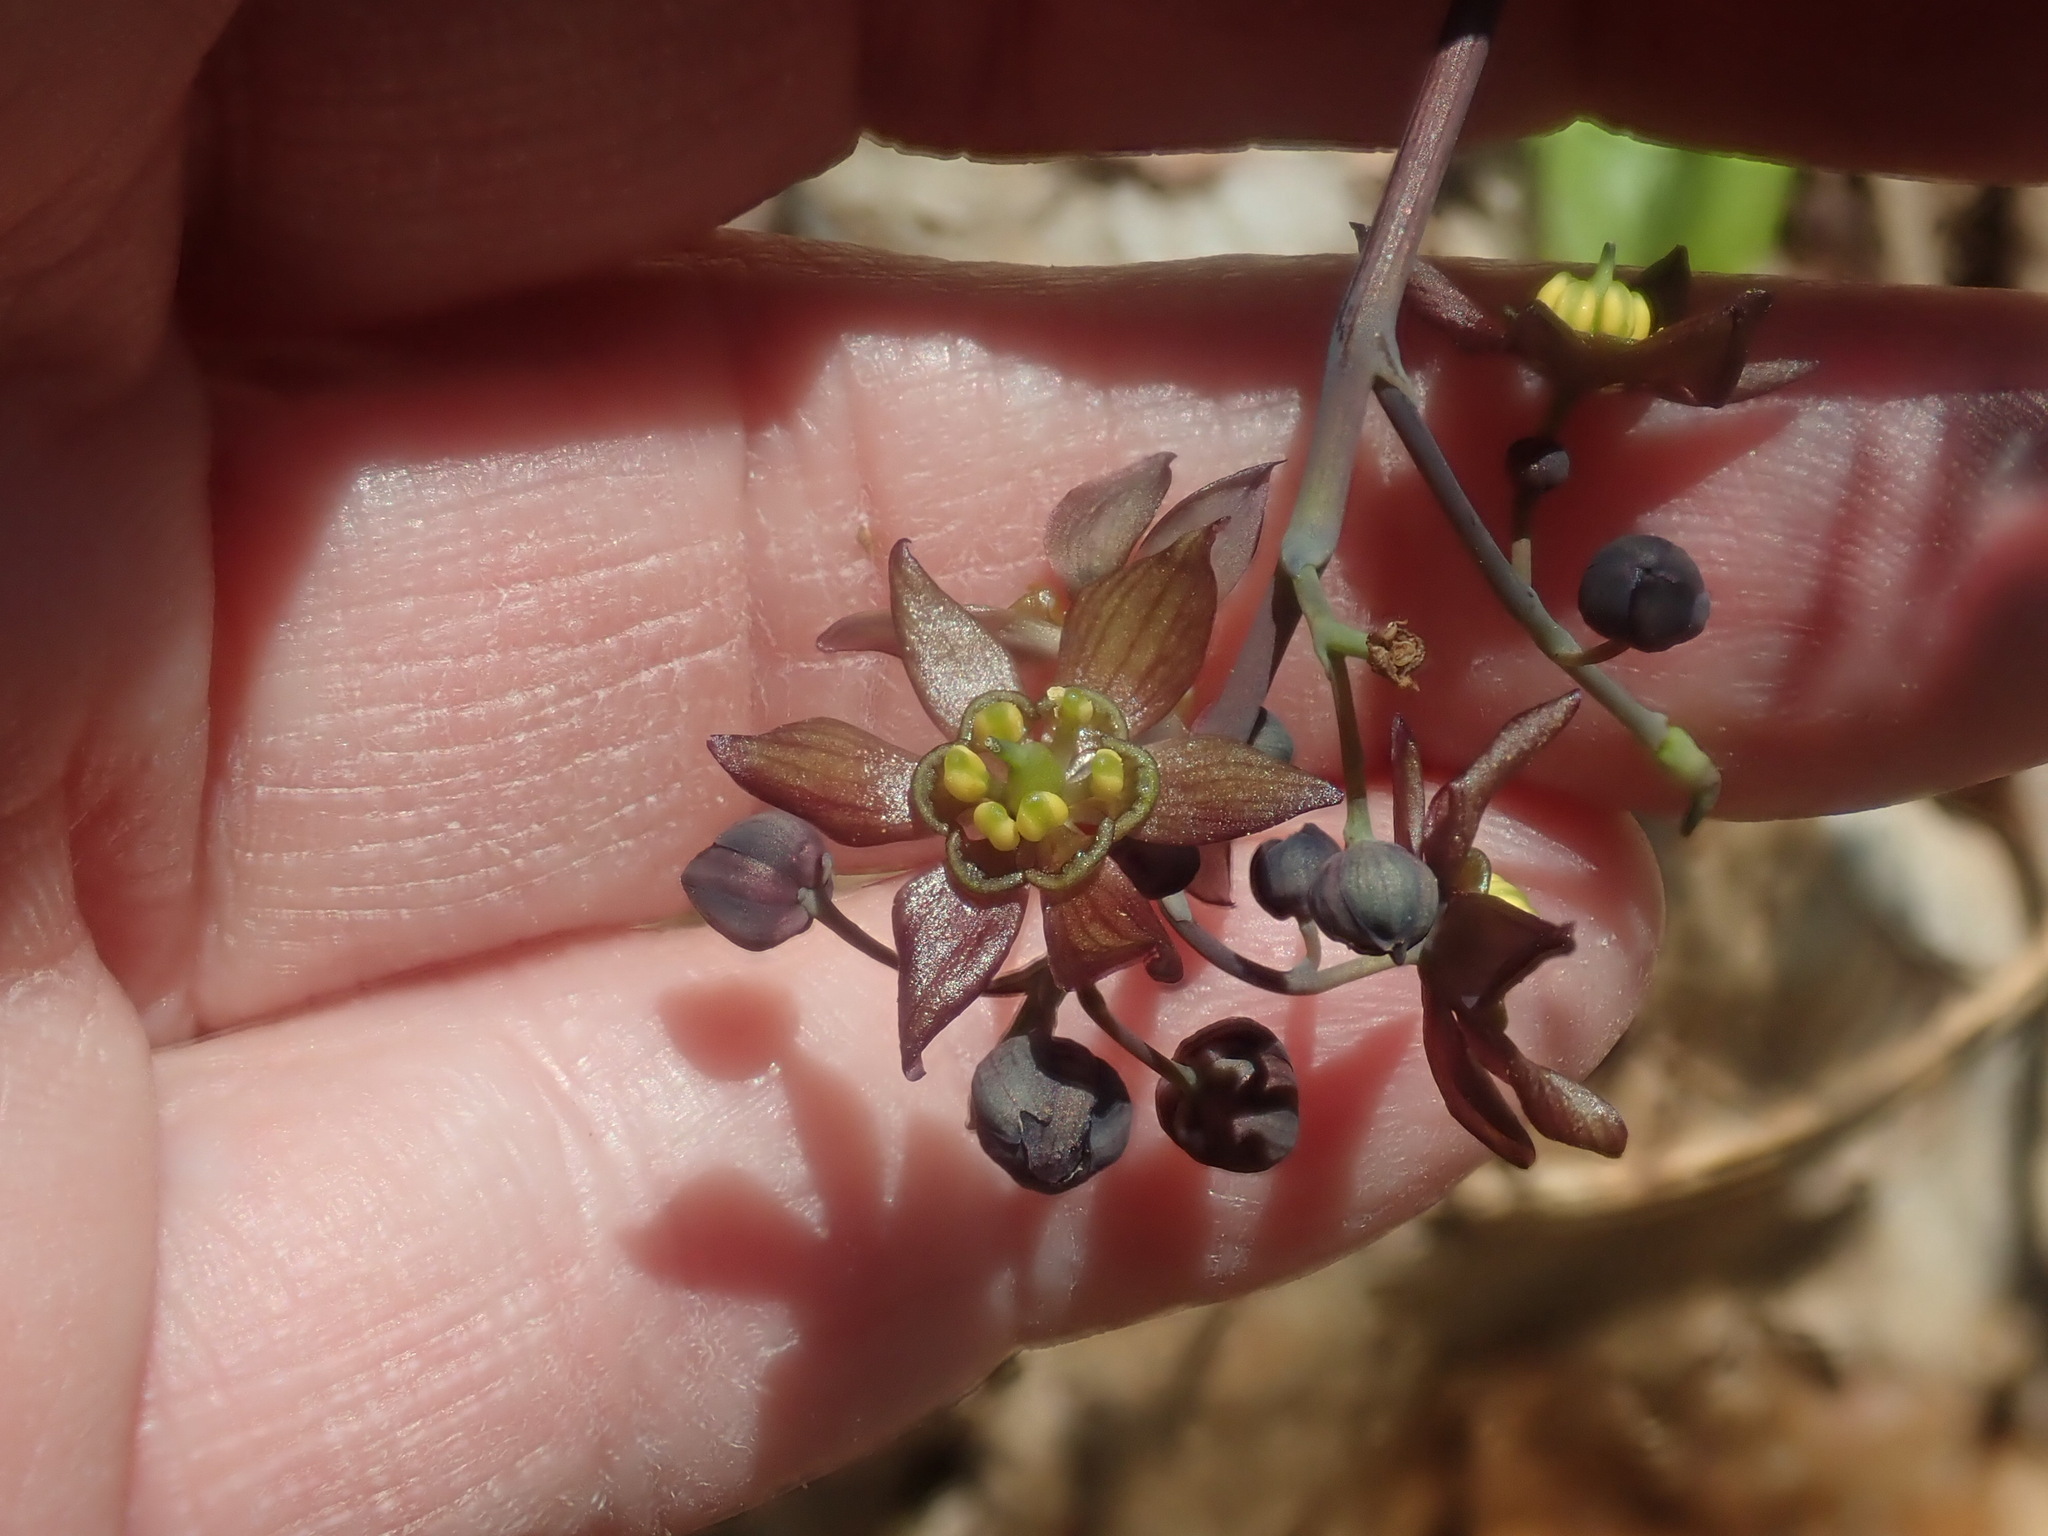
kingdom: Plantae
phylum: Tracheophyta
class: Magnoliopsida
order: Ranunculales
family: Berberidaceae
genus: Caulophyllum
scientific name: Caulophyllum thalictroides
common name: Blue cohosh
